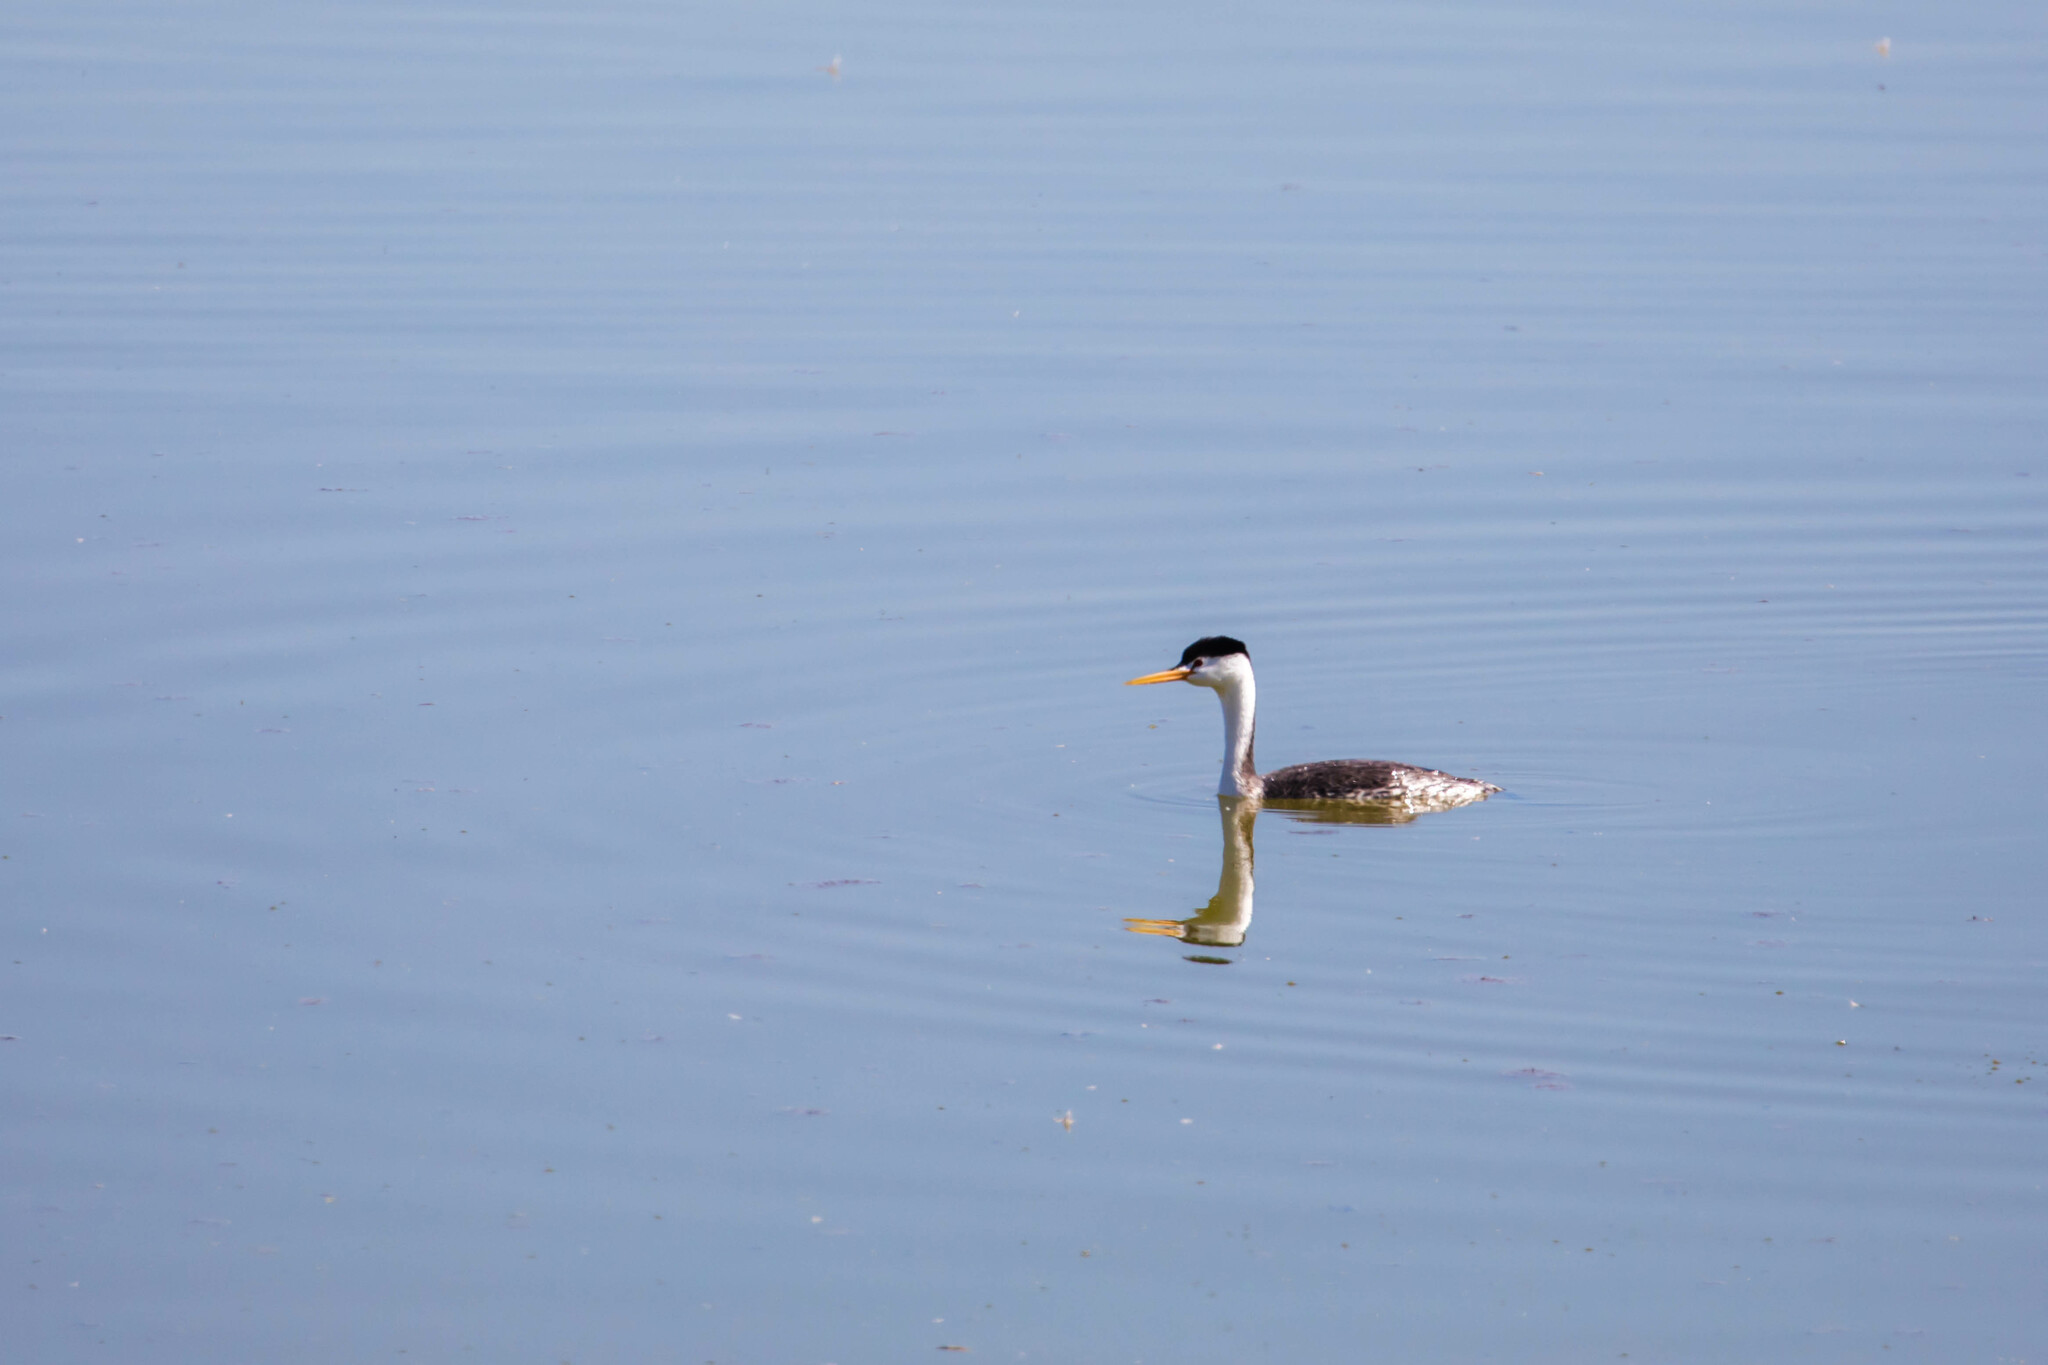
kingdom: Animalia
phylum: Chordata
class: Aves
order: Podicipediformes
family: Podicipedidae
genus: Aechmophorus
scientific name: Aechmophorus clarkii
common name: Clark's grebe
